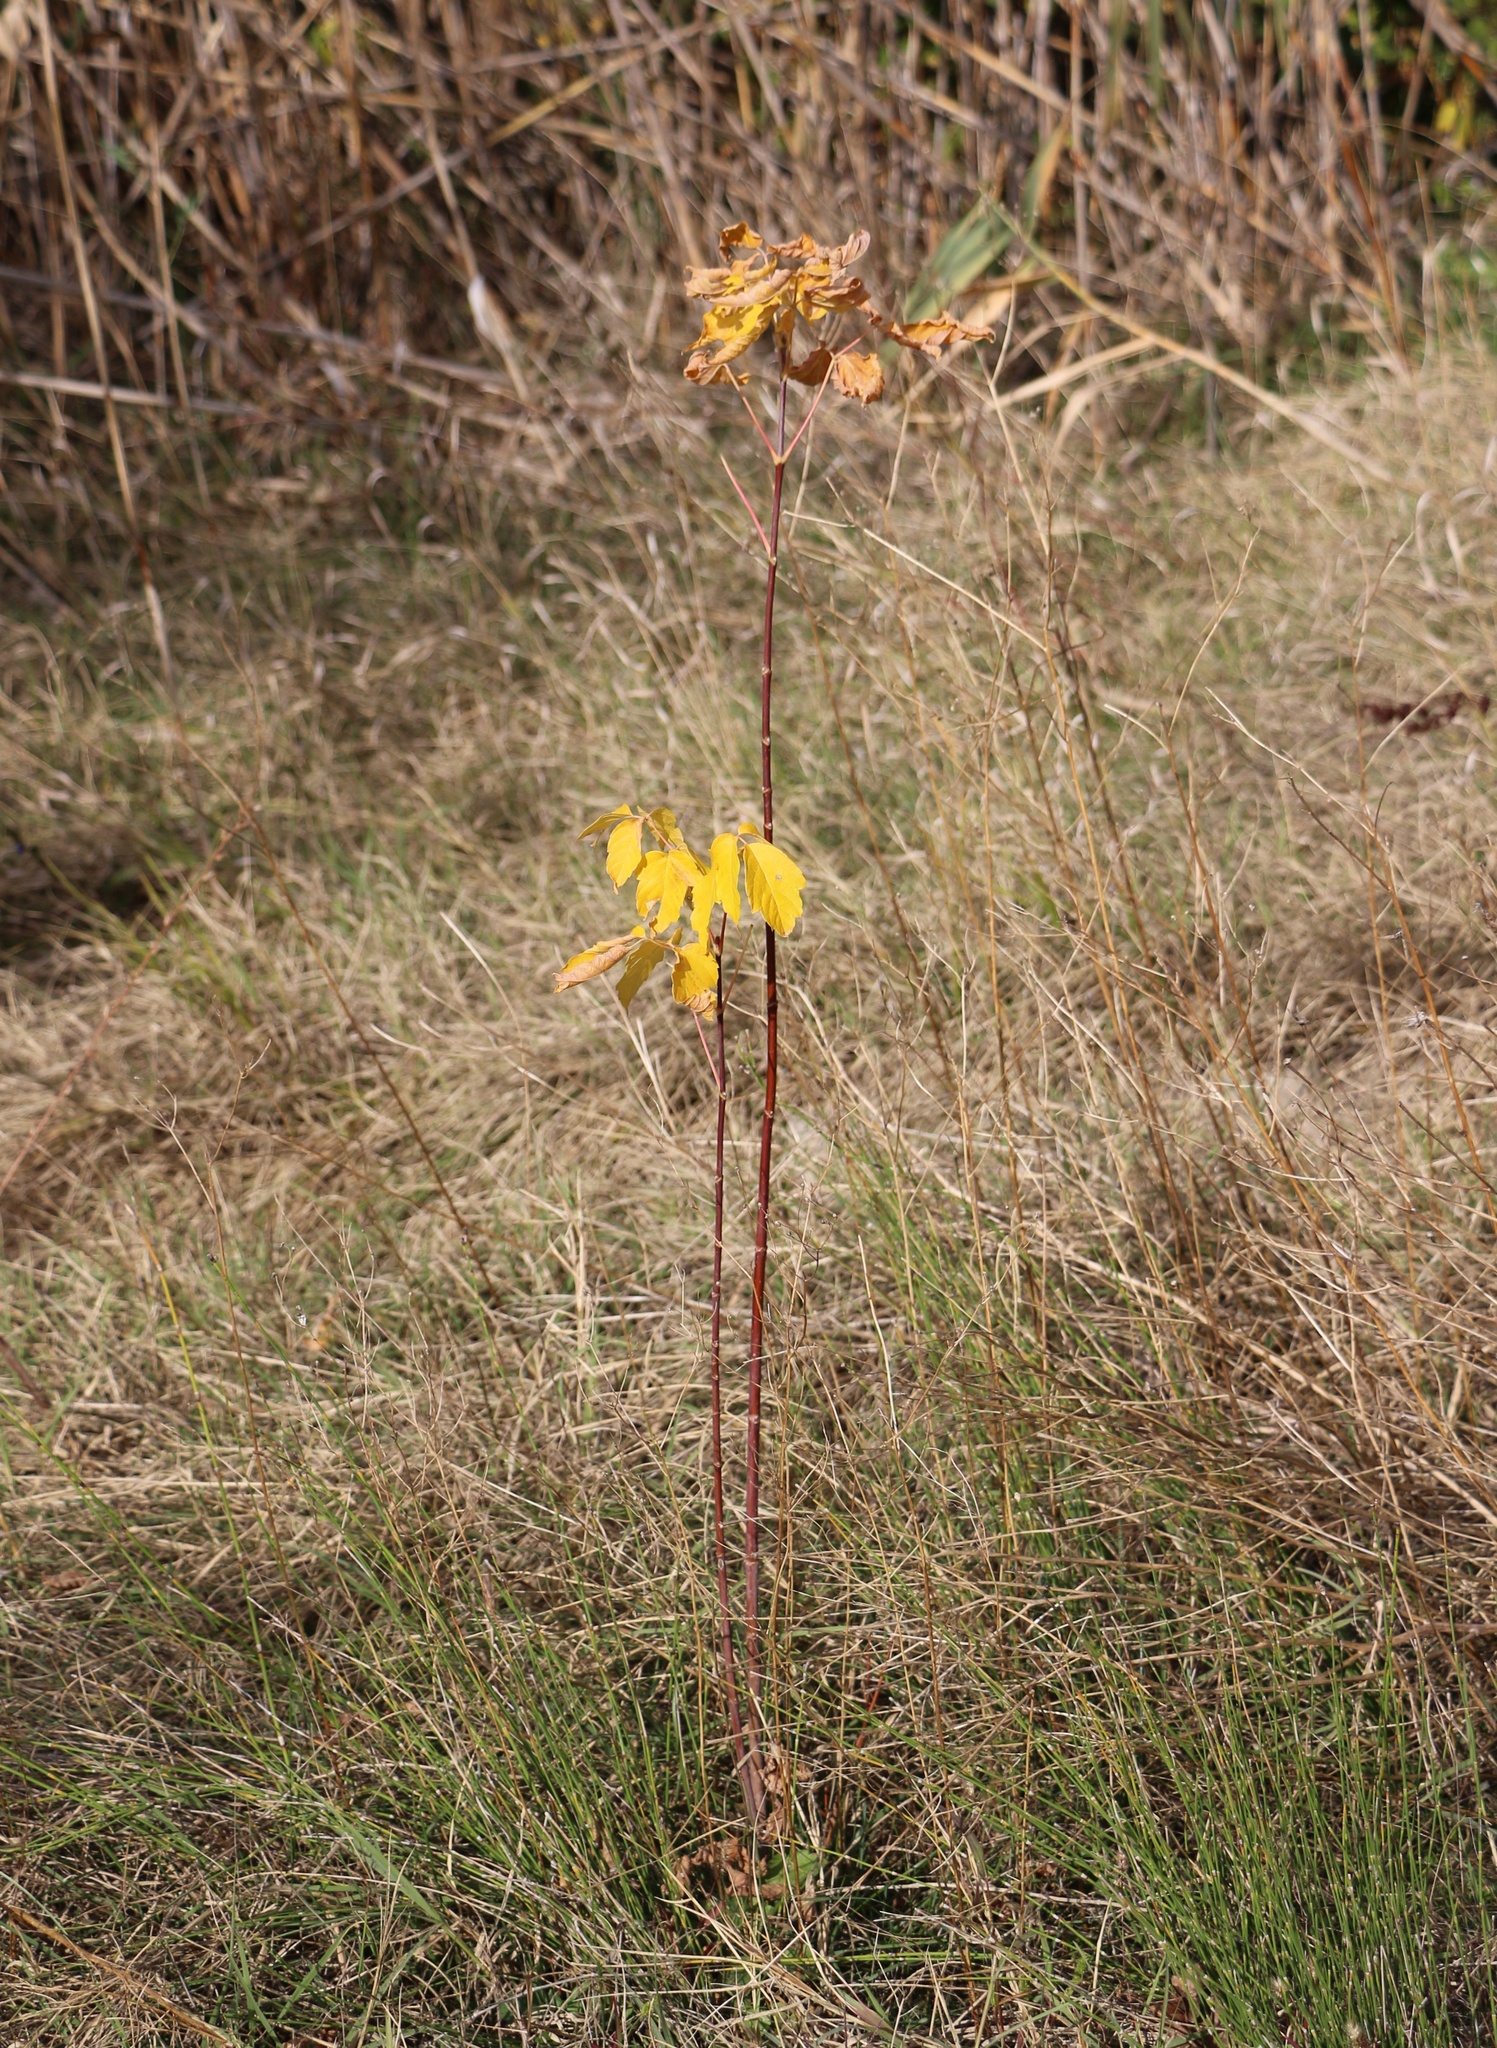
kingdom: Plantae
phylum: Tracheophyta
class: Magnoliopsida
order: Sapindales
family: Sapindaceae
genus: Acer
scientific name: Acer negundo
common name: Ashleaf maple
